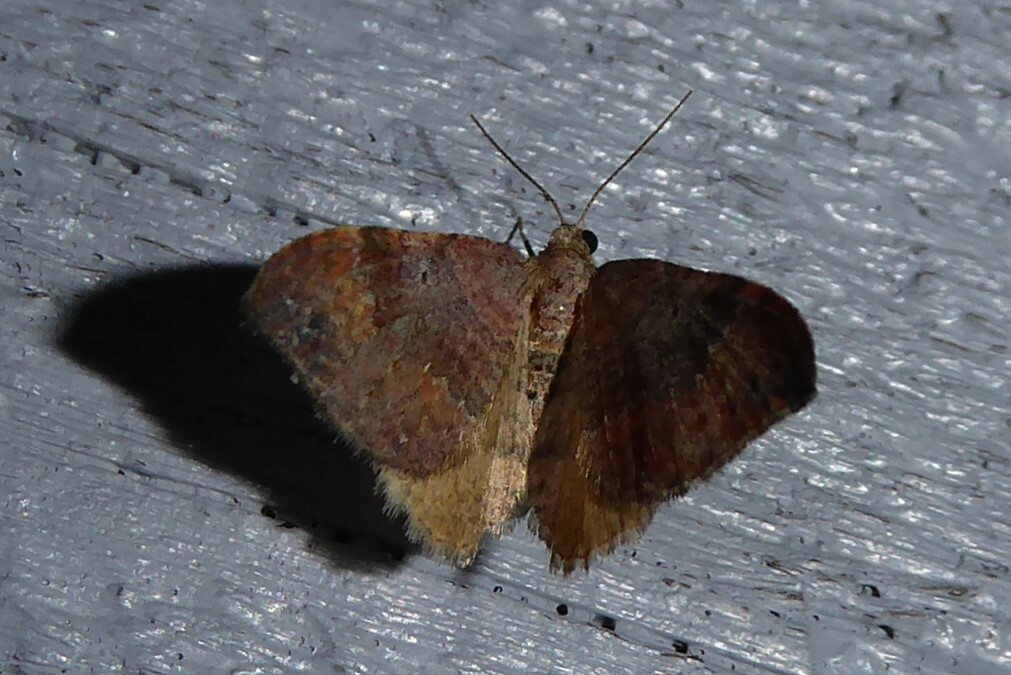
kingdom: Animalia
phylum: Arthropoda
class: Insecta
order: Lepidoptera
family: Geometridae
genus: Homodotis
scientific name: Homodotis megaspilata
